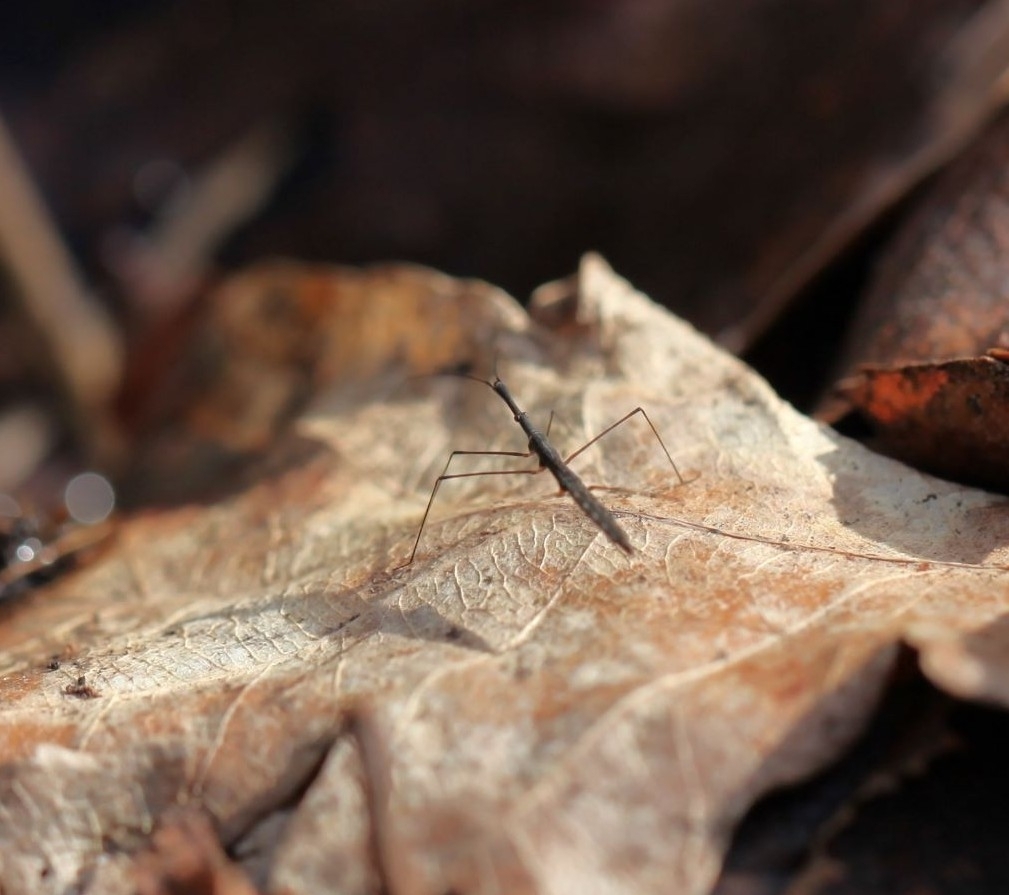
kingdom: Animalia
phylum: Arthropoda
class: Insecta
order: Hemiptera
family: Hydrometridae
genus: Hydrometra
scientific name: Hydrometra stagnorum
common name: Water measurer
